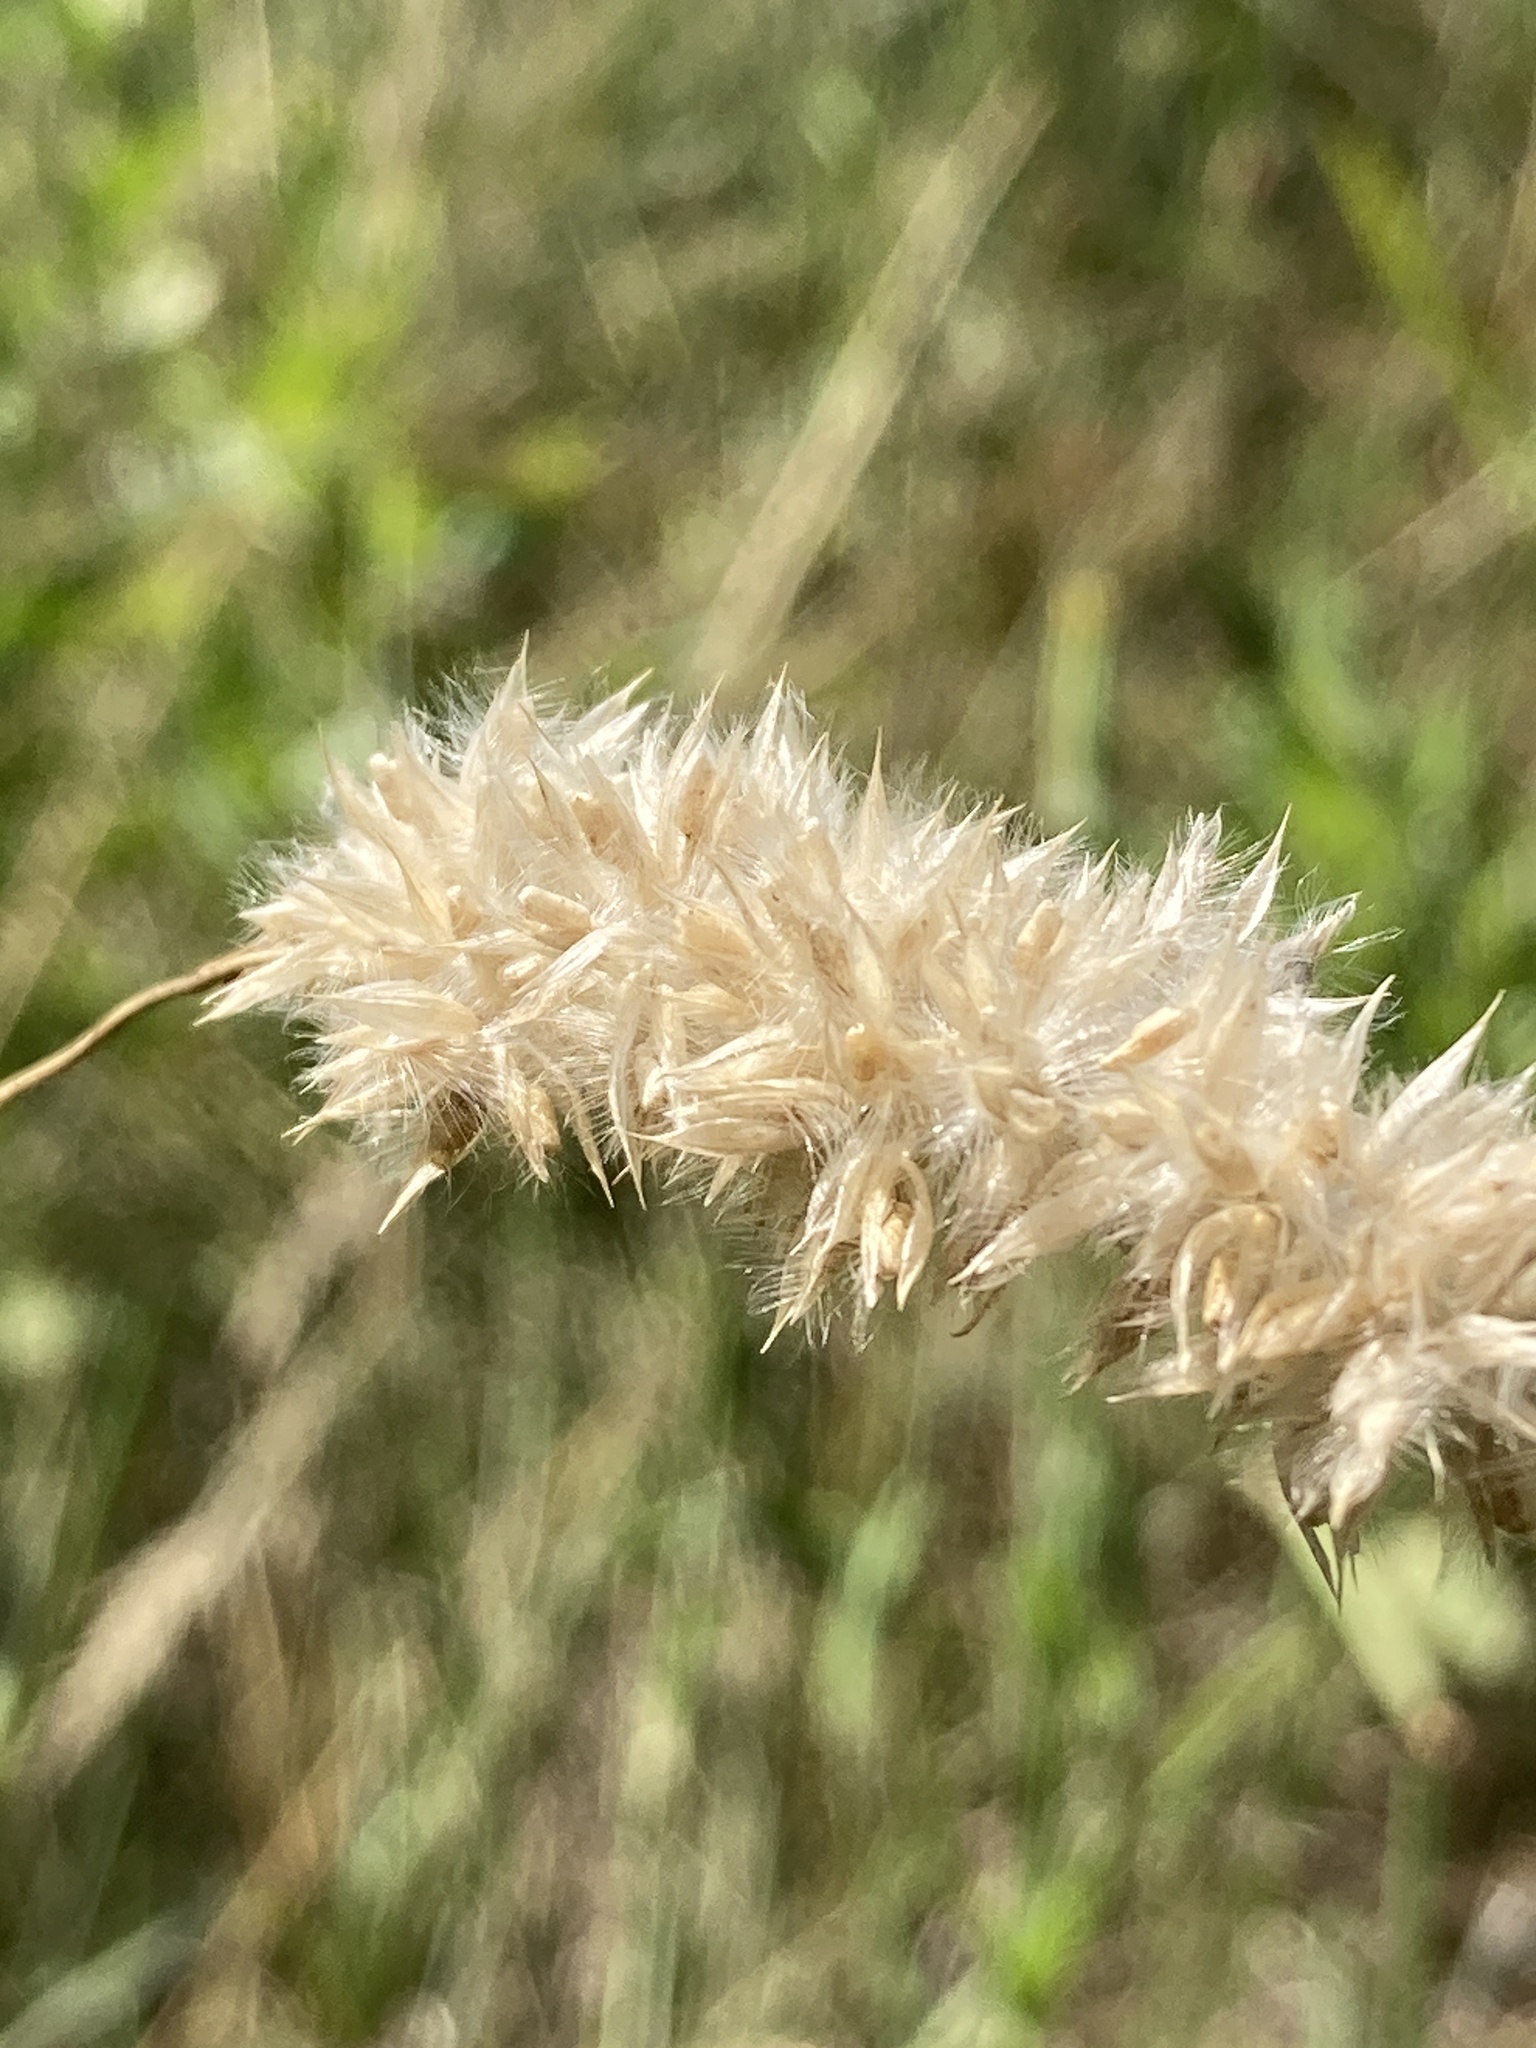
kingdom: Plantae
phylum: Tracheophyta
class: Liliopsida
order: Poales
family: Poaceae
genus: Melica
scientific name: Melica transsilvanica
